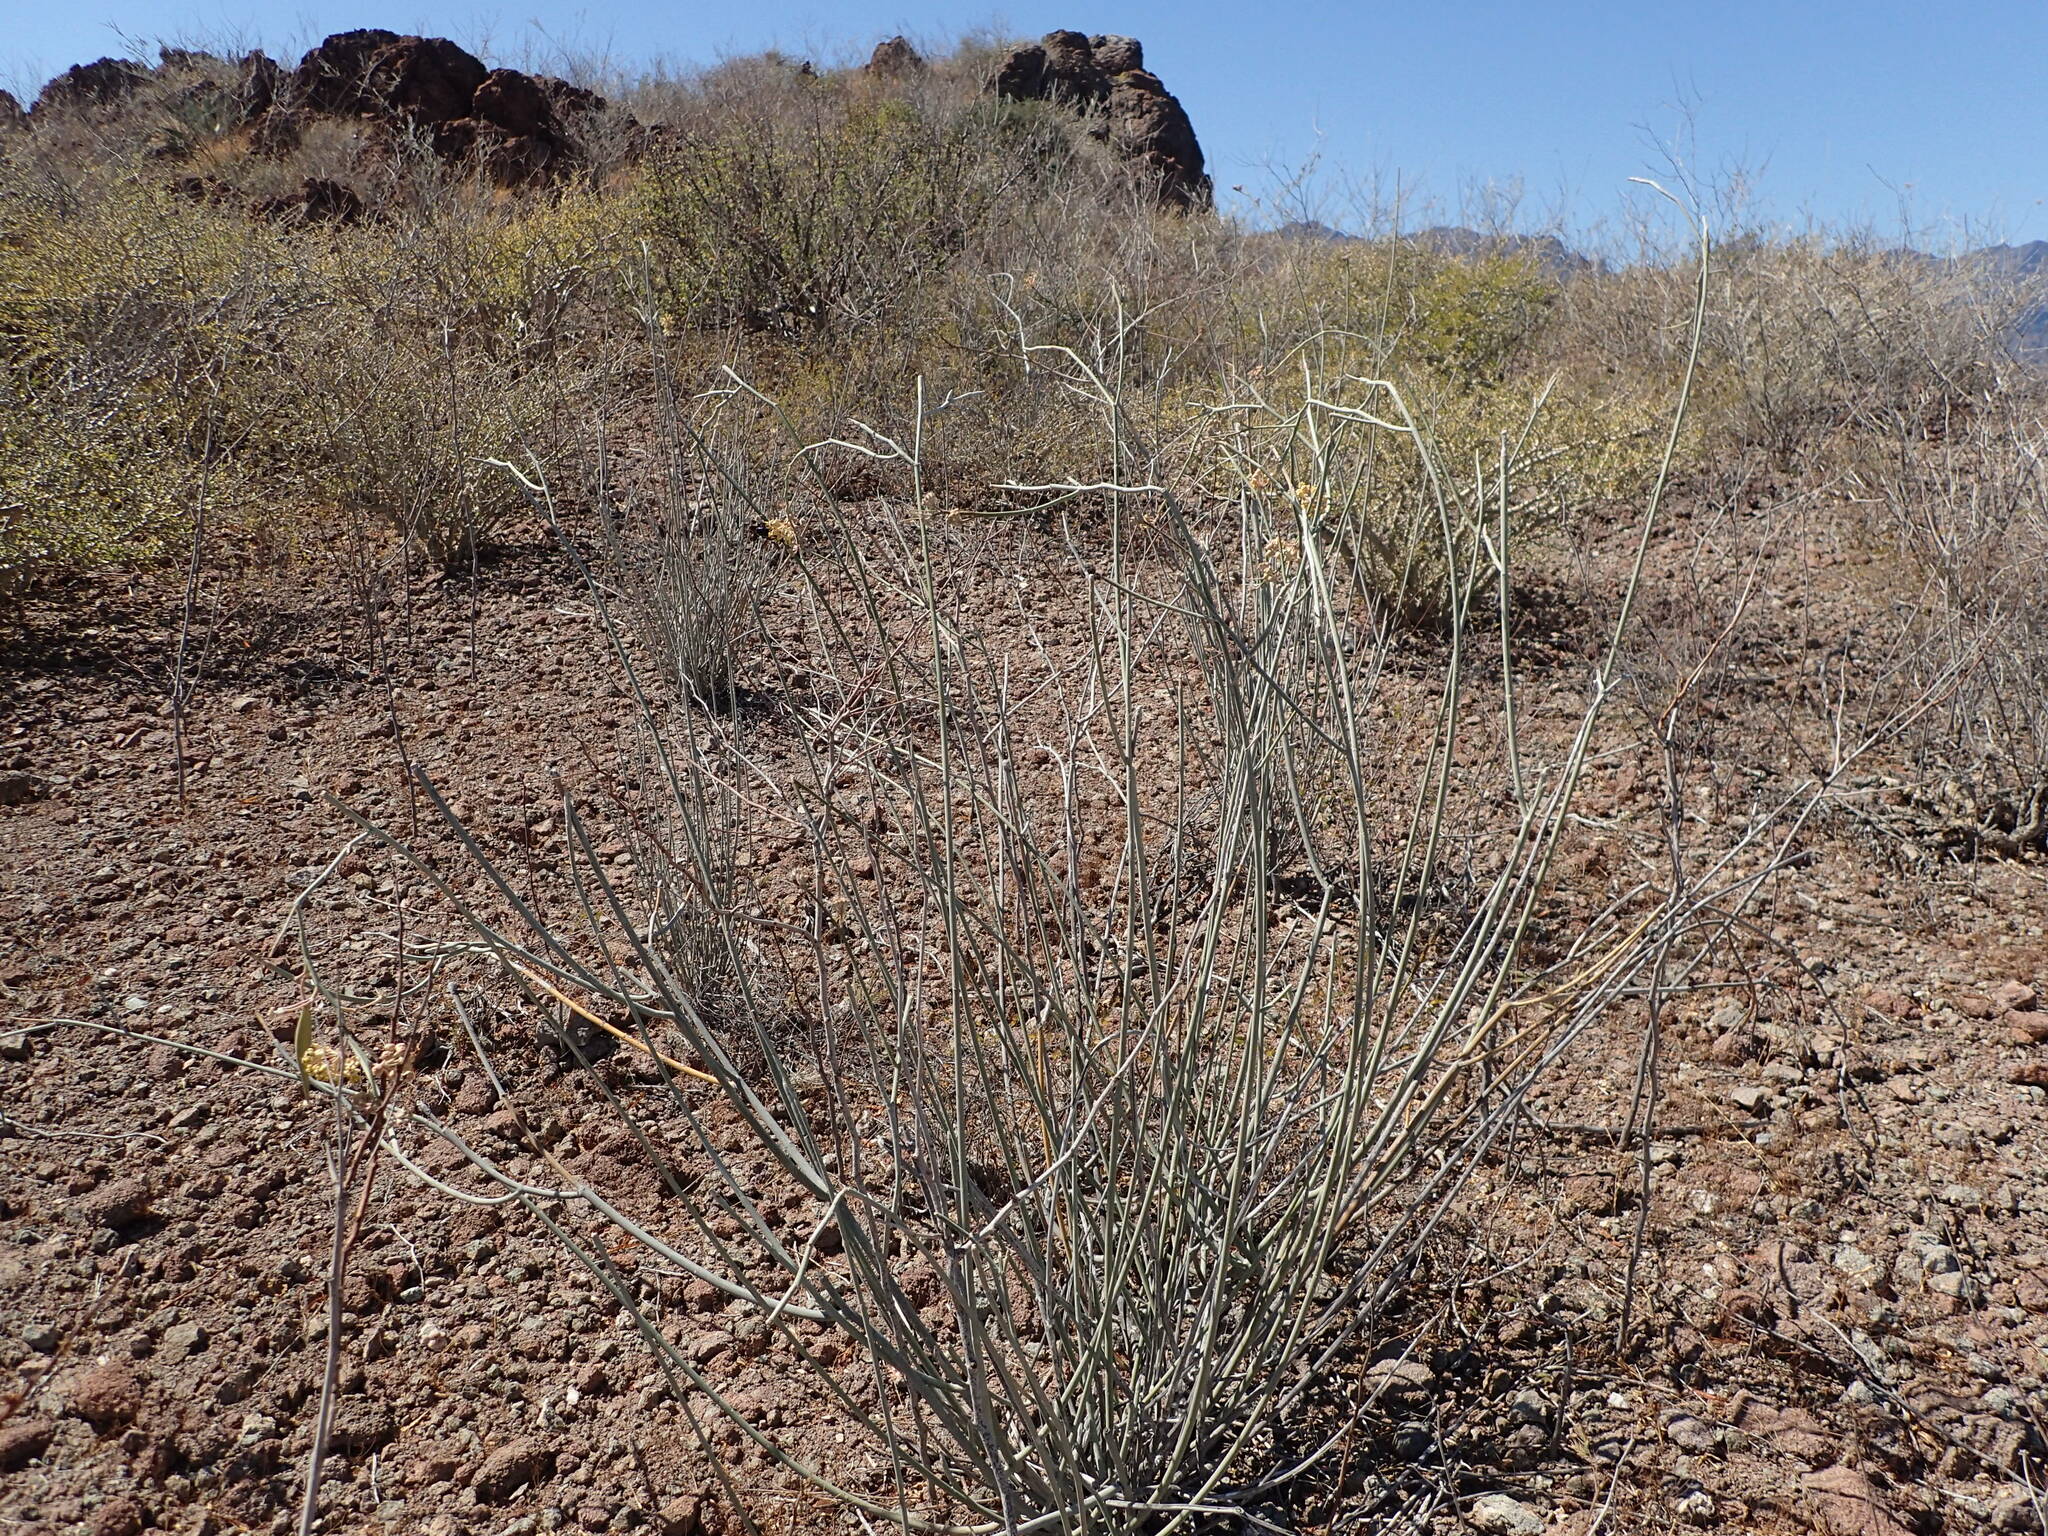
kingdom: Plantae
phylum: Tracheophyta
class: Magnoliopsida
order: Gentianales
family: Apocynaceae
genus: Asclepias
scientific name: Asclepias albicans
